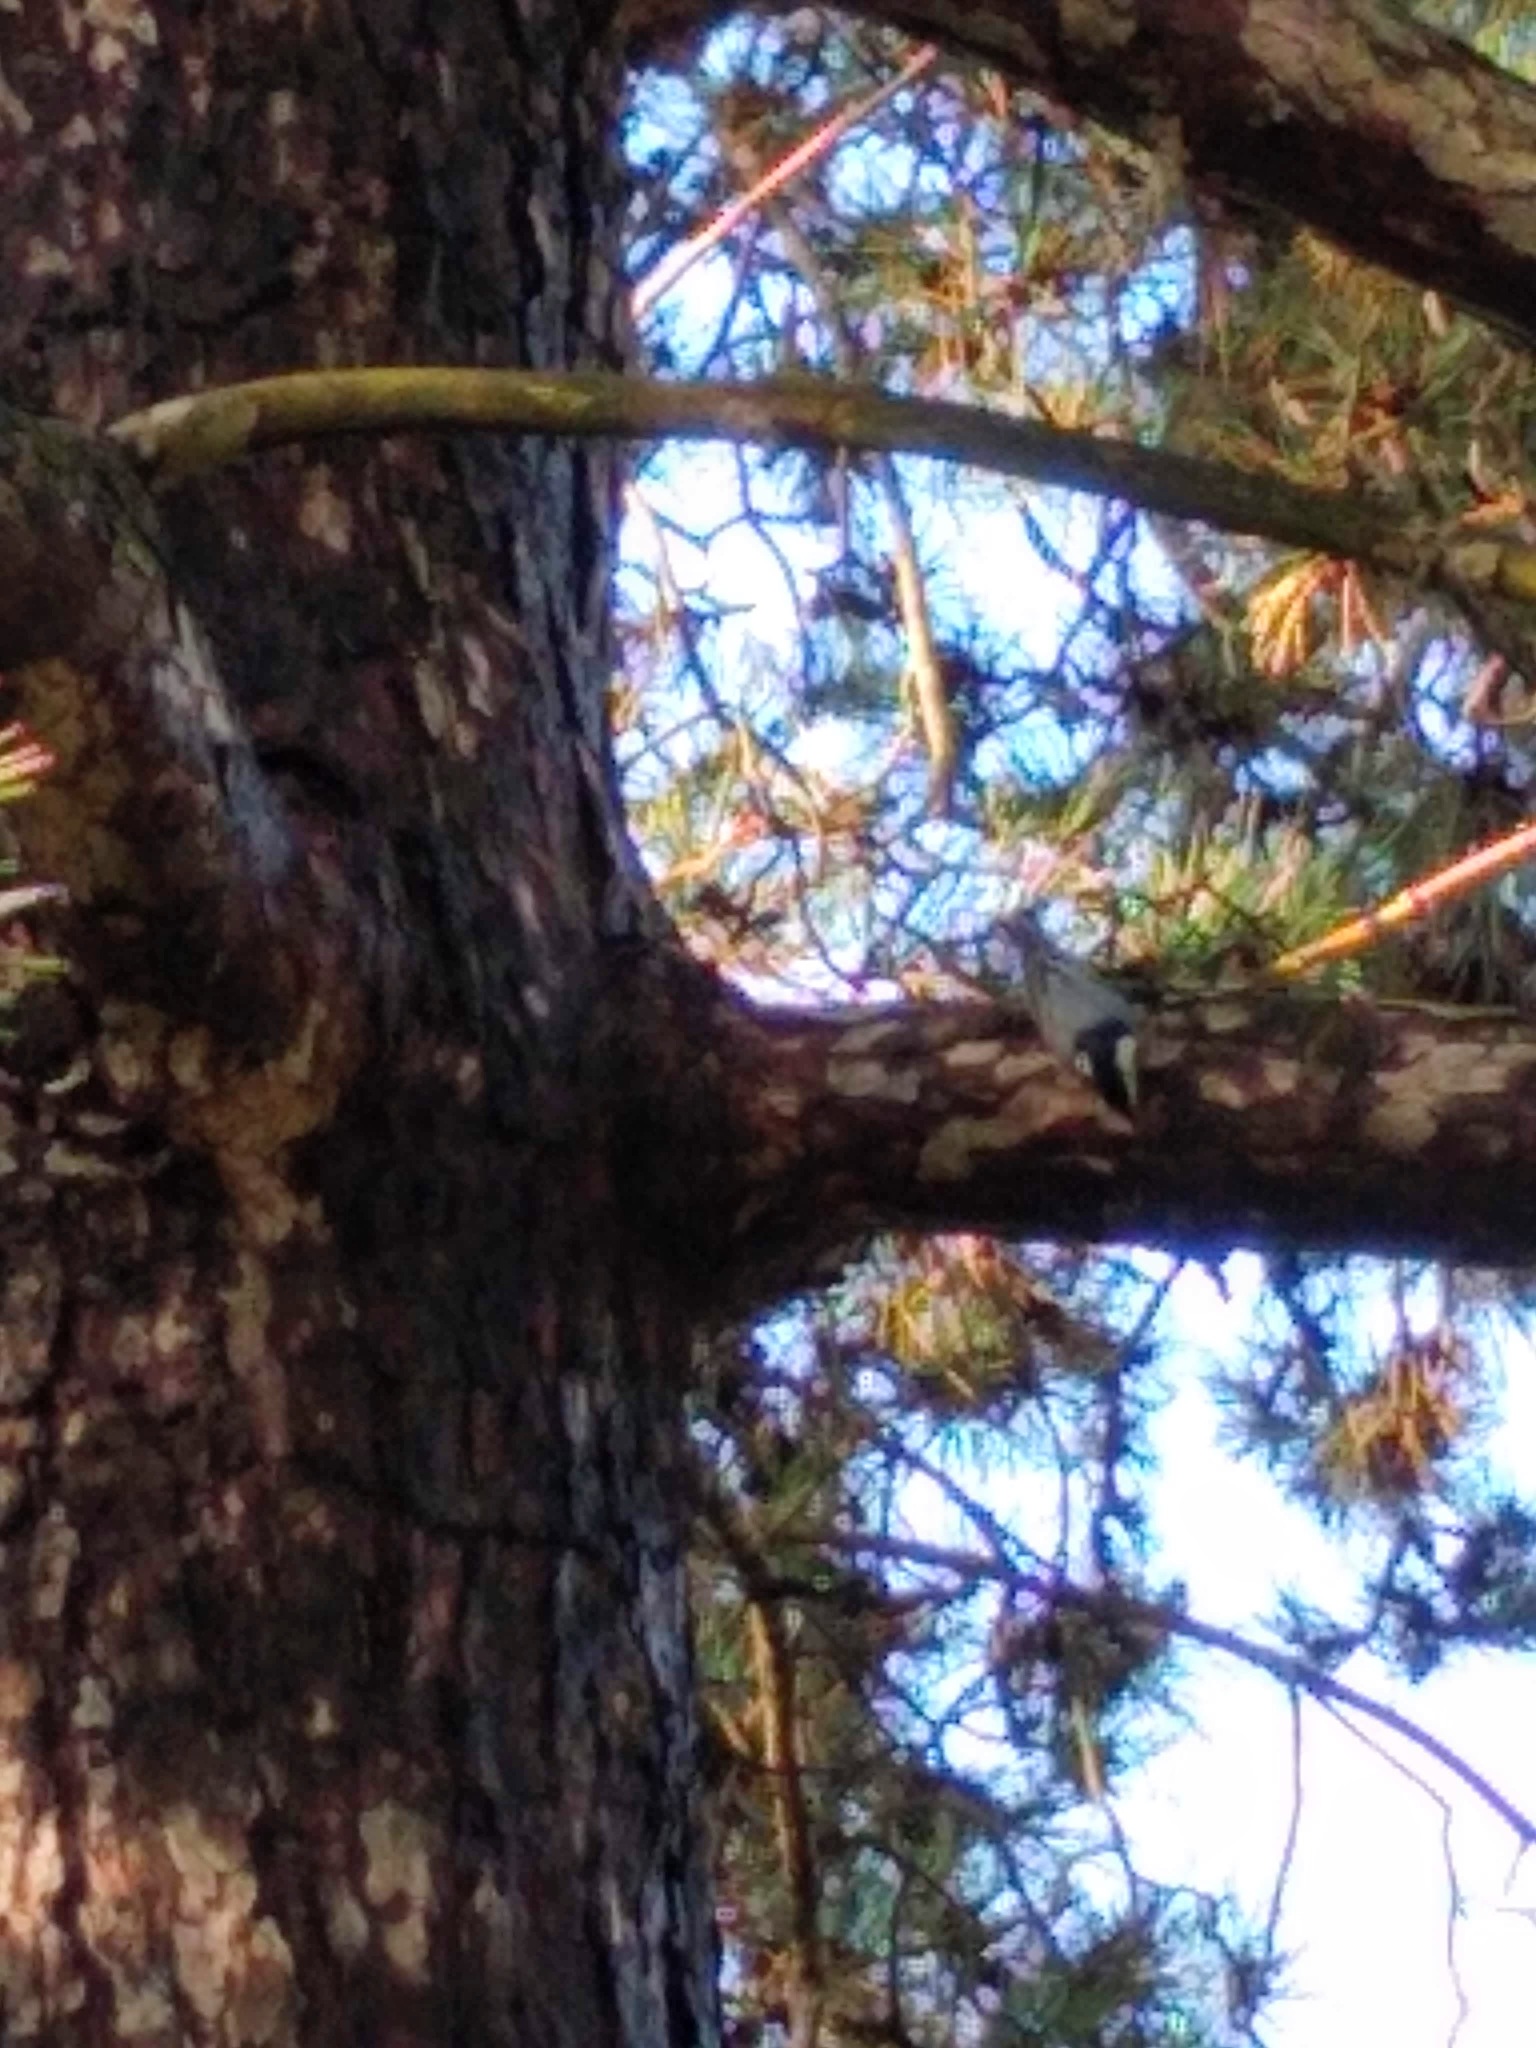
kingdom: Animalia
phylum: Chordata
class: Aves
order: Passeriformes
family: Sittidae
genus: Sitta
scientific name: Sitta carolinensis
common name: White-breasted nuthatch
